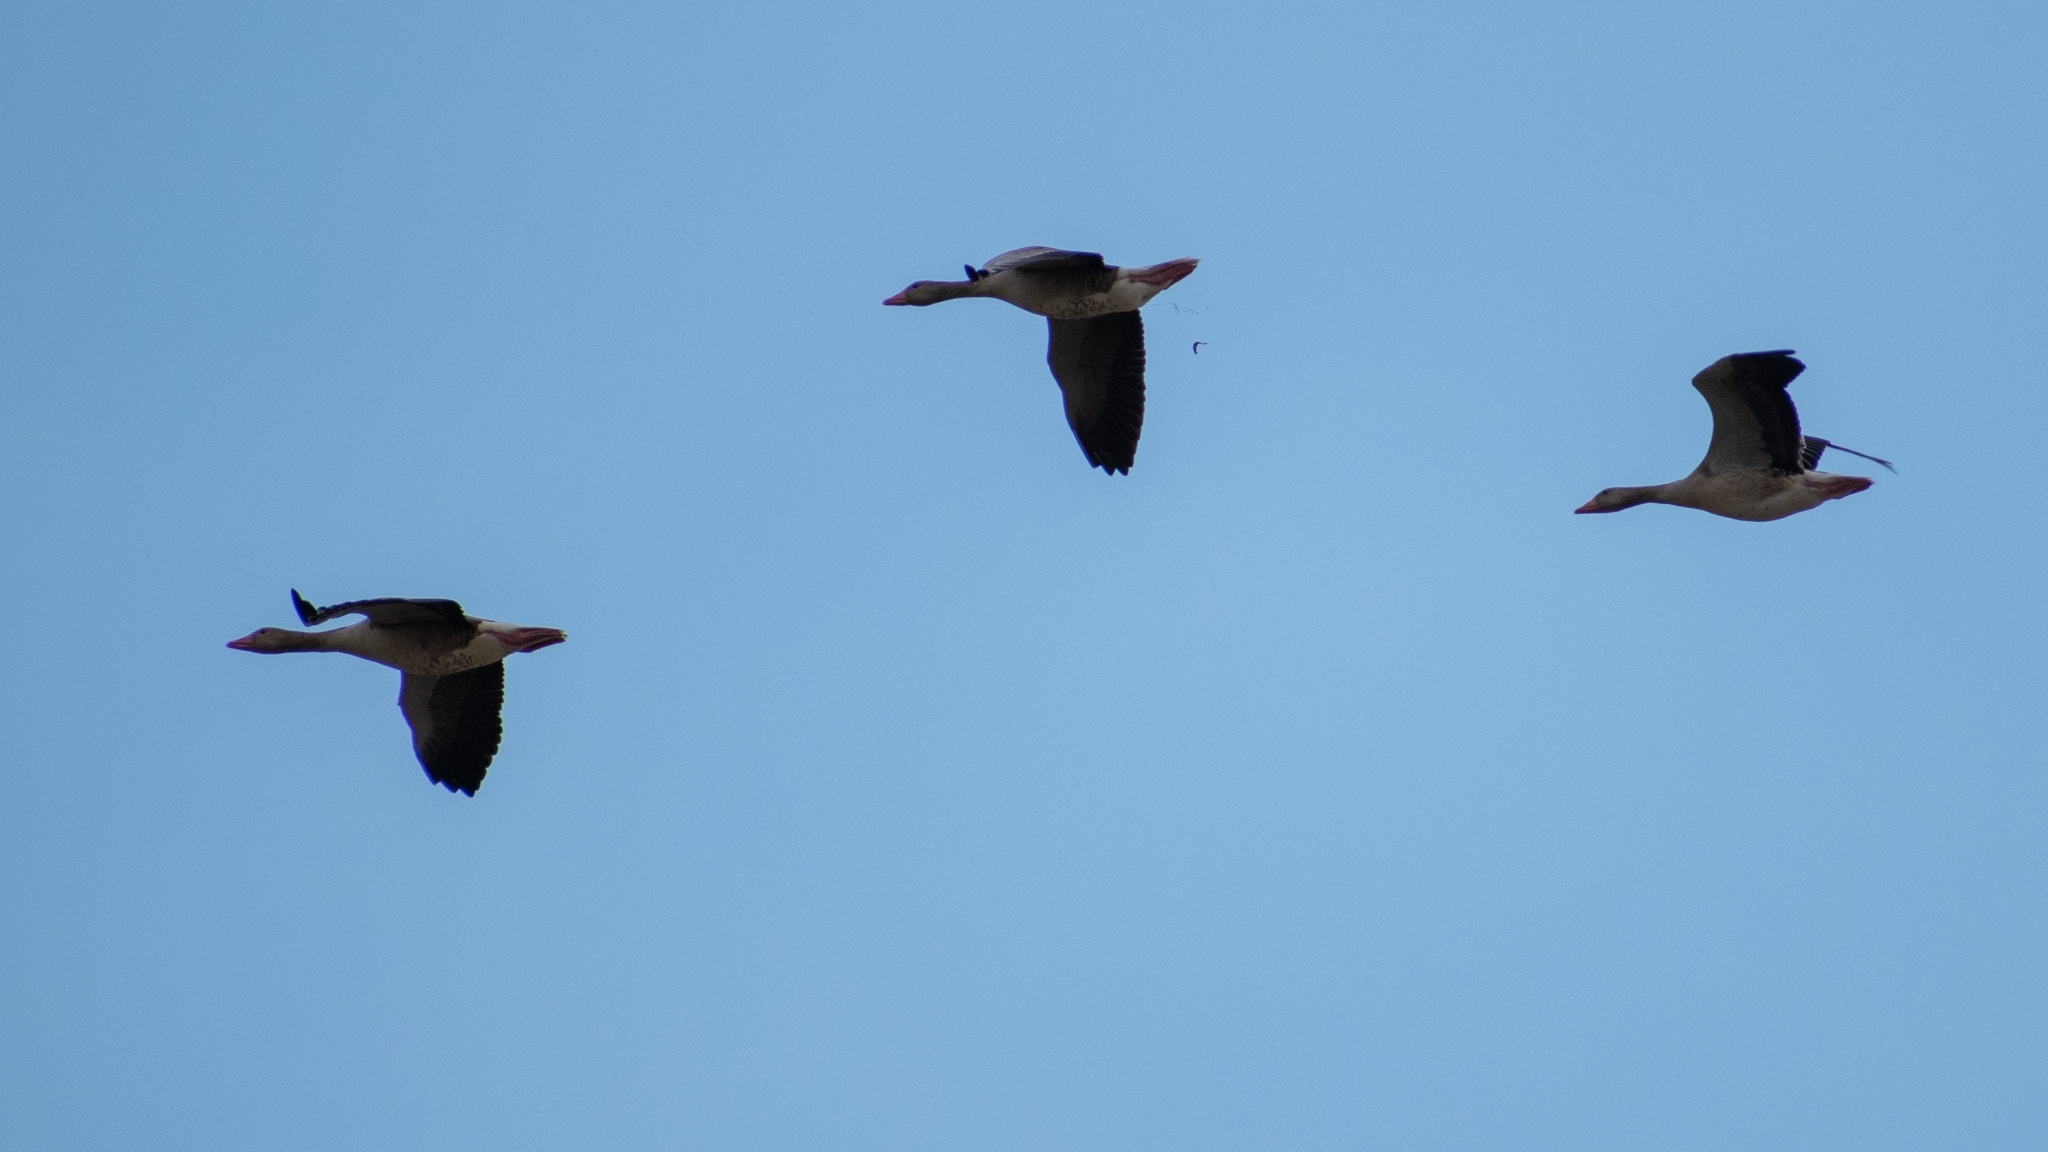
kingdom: Animalia
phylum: Chordata
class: Aves
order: Anseriformes
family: Anatidae
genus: Anser
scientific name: Anser anser
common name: Greylag goose
